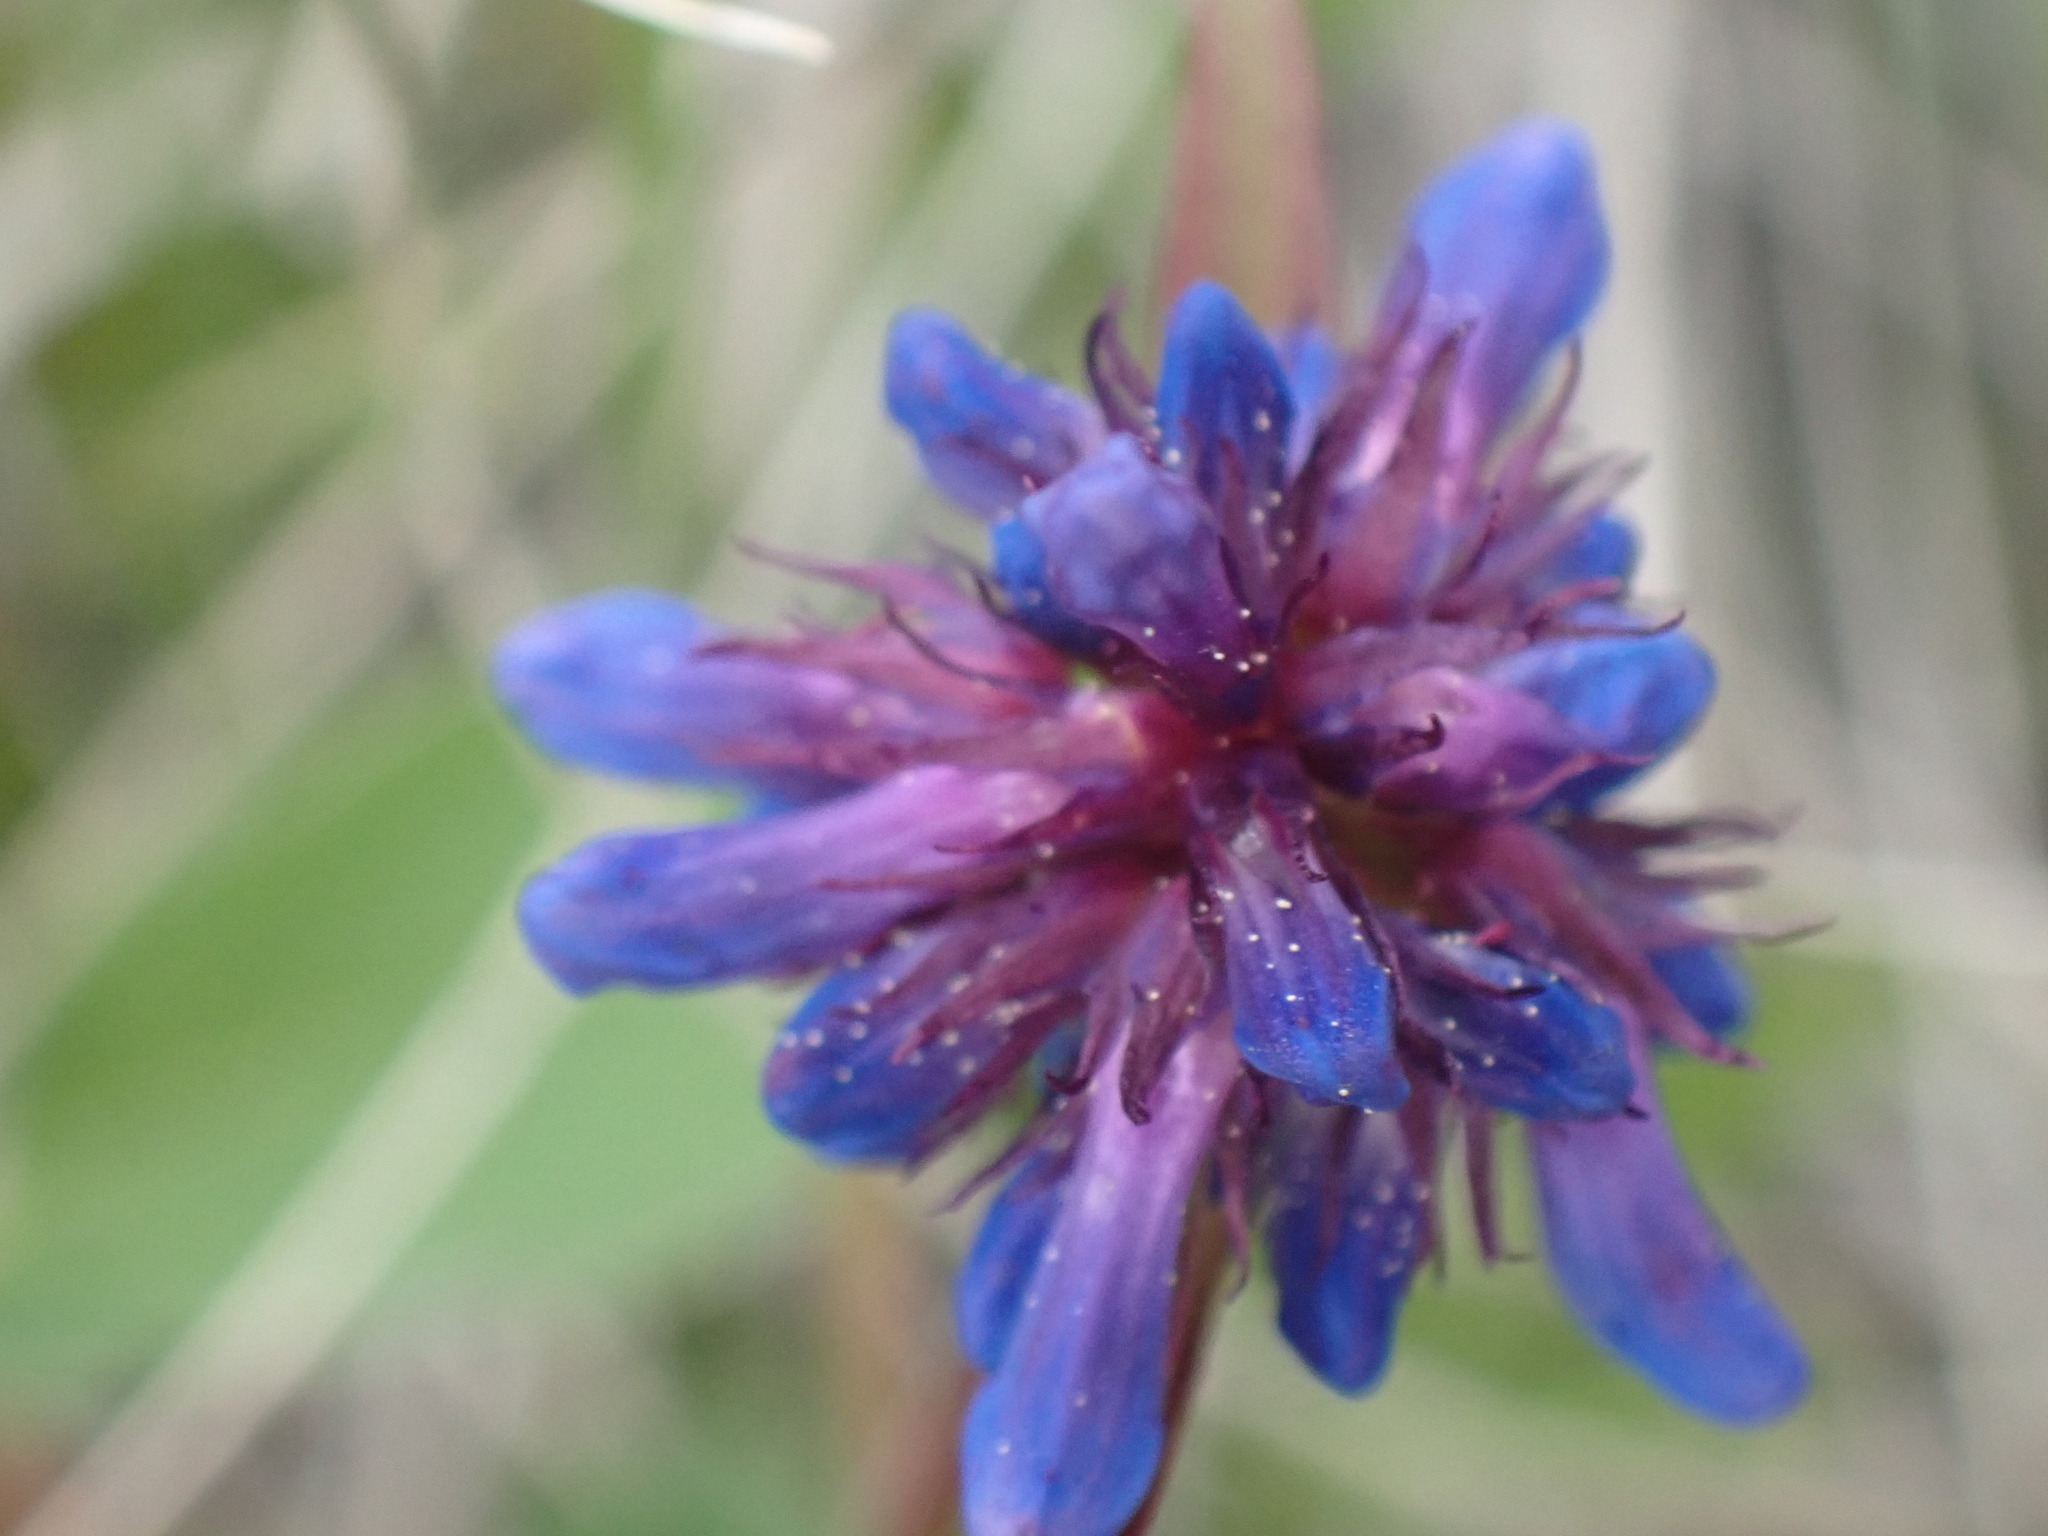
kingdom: Plantae
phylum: Tracheophyta
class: Magnoliopsida
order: Lamiales
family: Plantaginaceae
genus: Penstemon
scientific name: Penstemon procerus
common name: Small-flower penstemon
